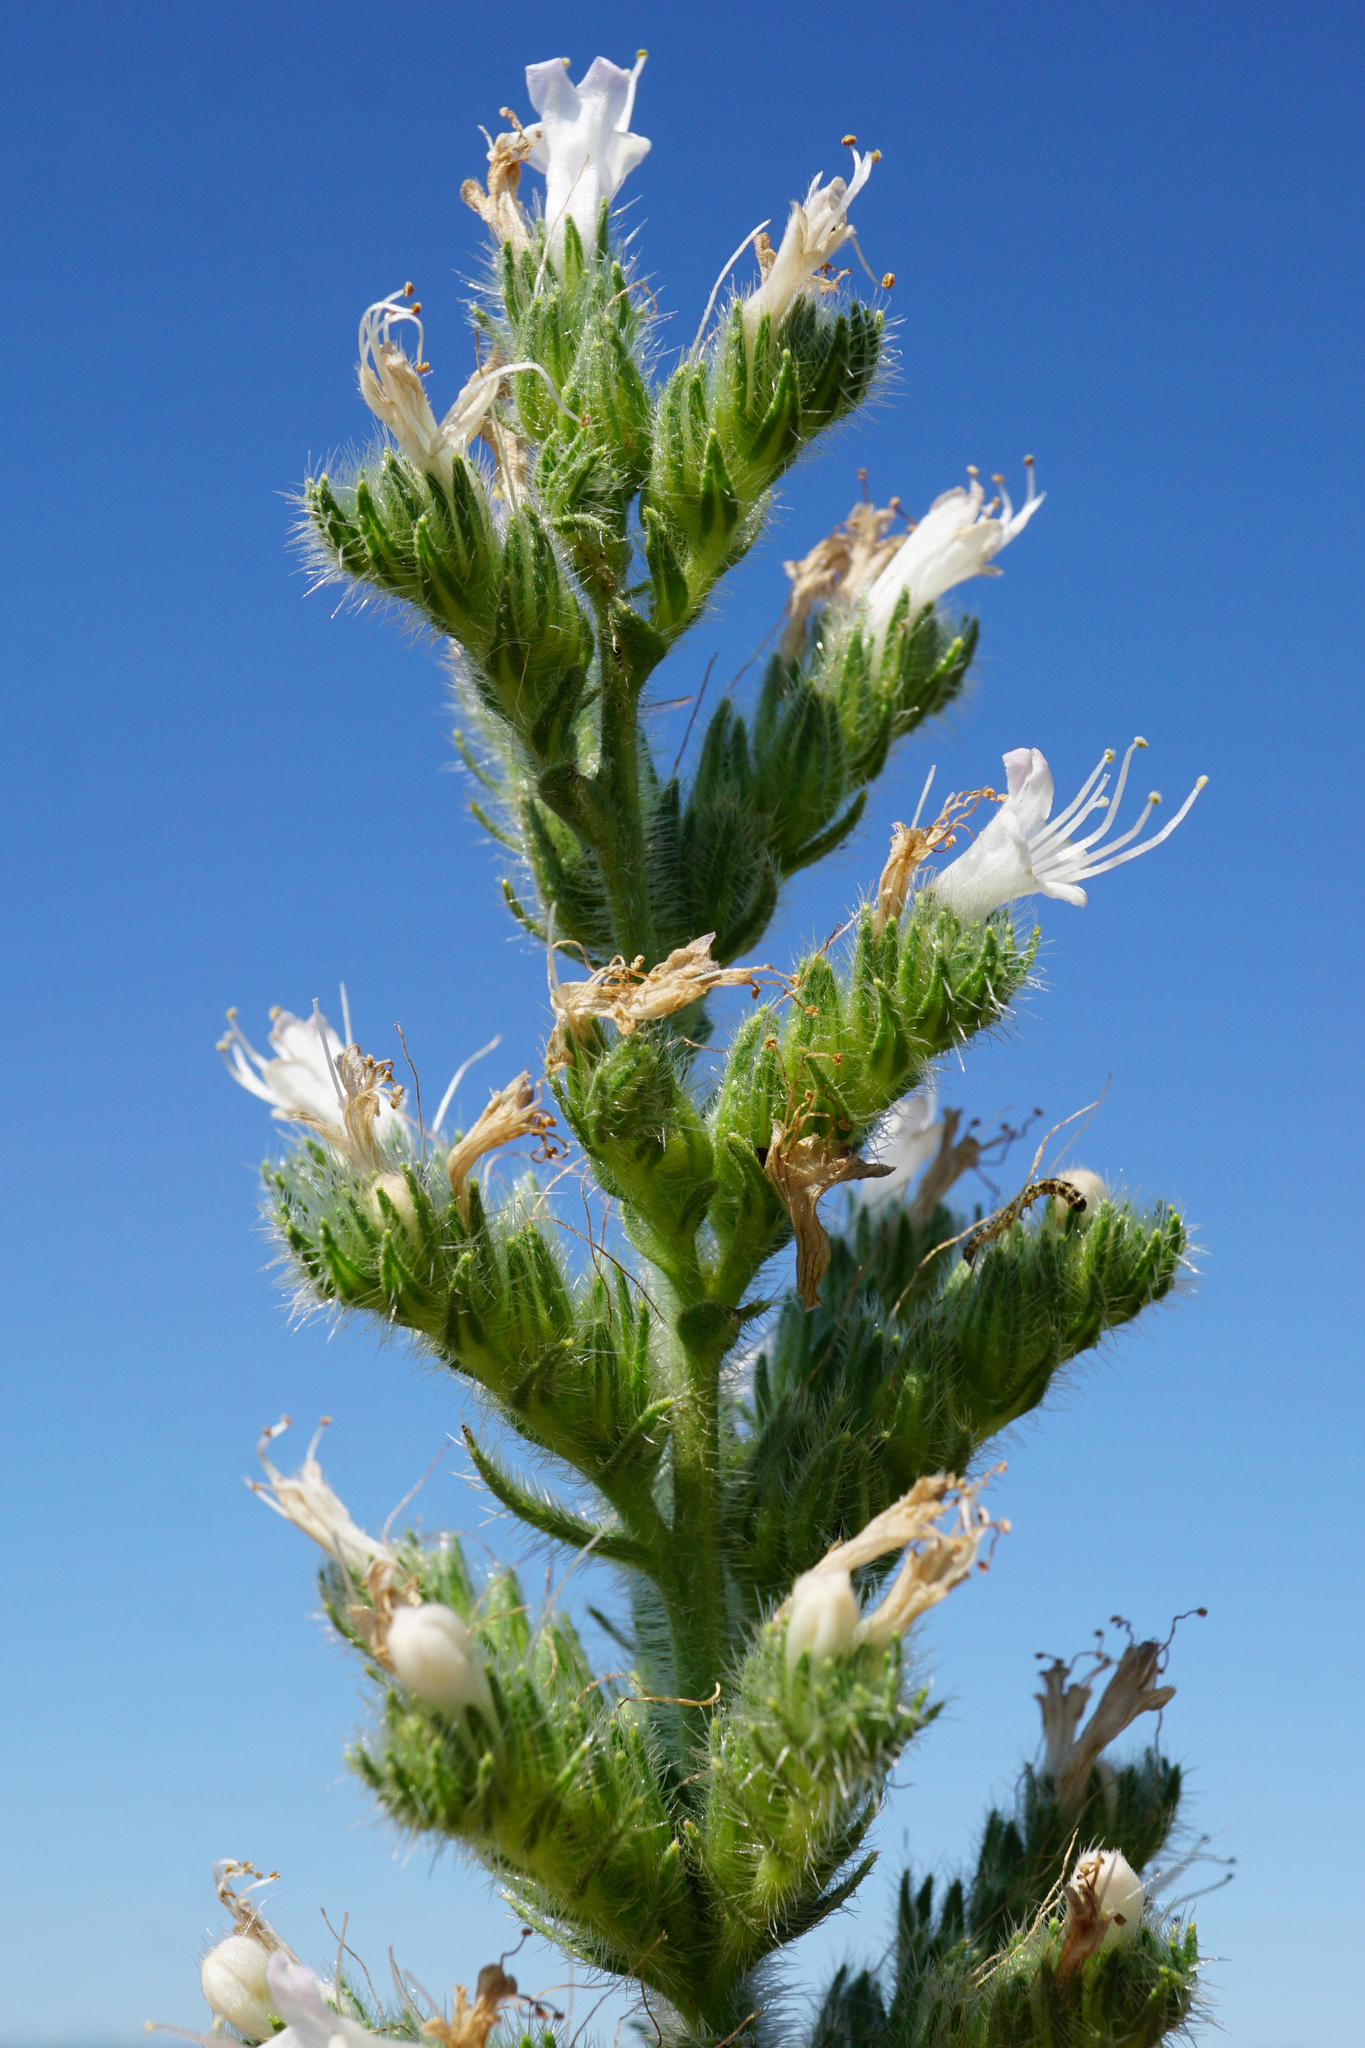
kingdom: Plantae
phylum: Tracheophyta
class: Magnoliopsida
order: Boraginales
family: Boraginaceae
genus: Echium
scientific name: Echium italicum
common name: Italian viper's bugloss
